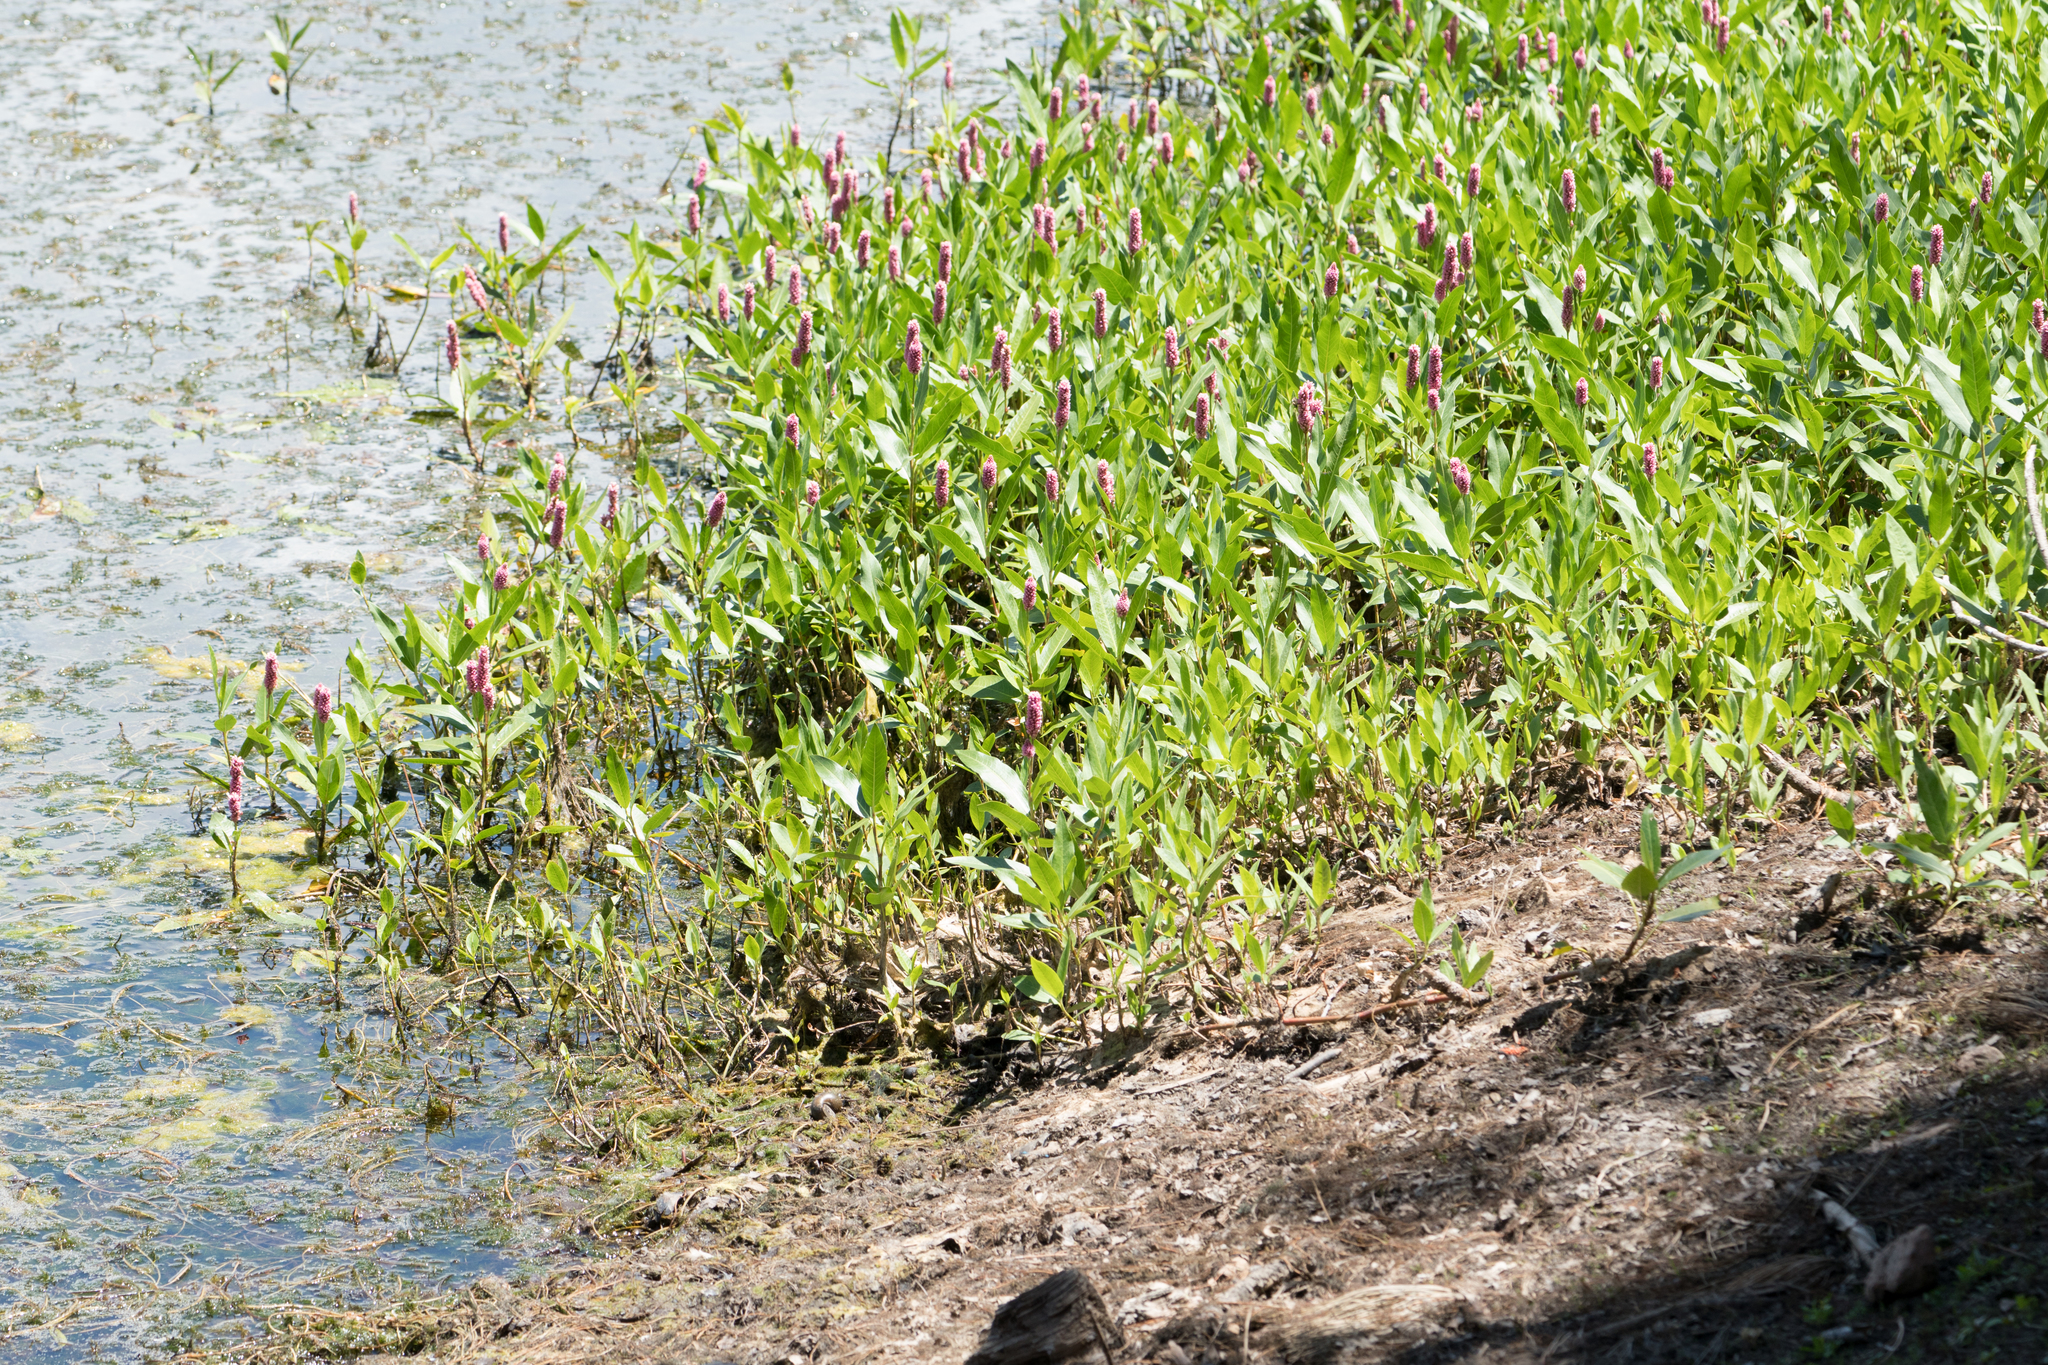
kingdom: Plantae
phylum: Tracheophyta
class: Magnoliopsida
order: Caryophyllales
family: Polygonaceae
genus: Persicaria
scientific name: Persicaria amphibia
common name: Amphibious bistort
